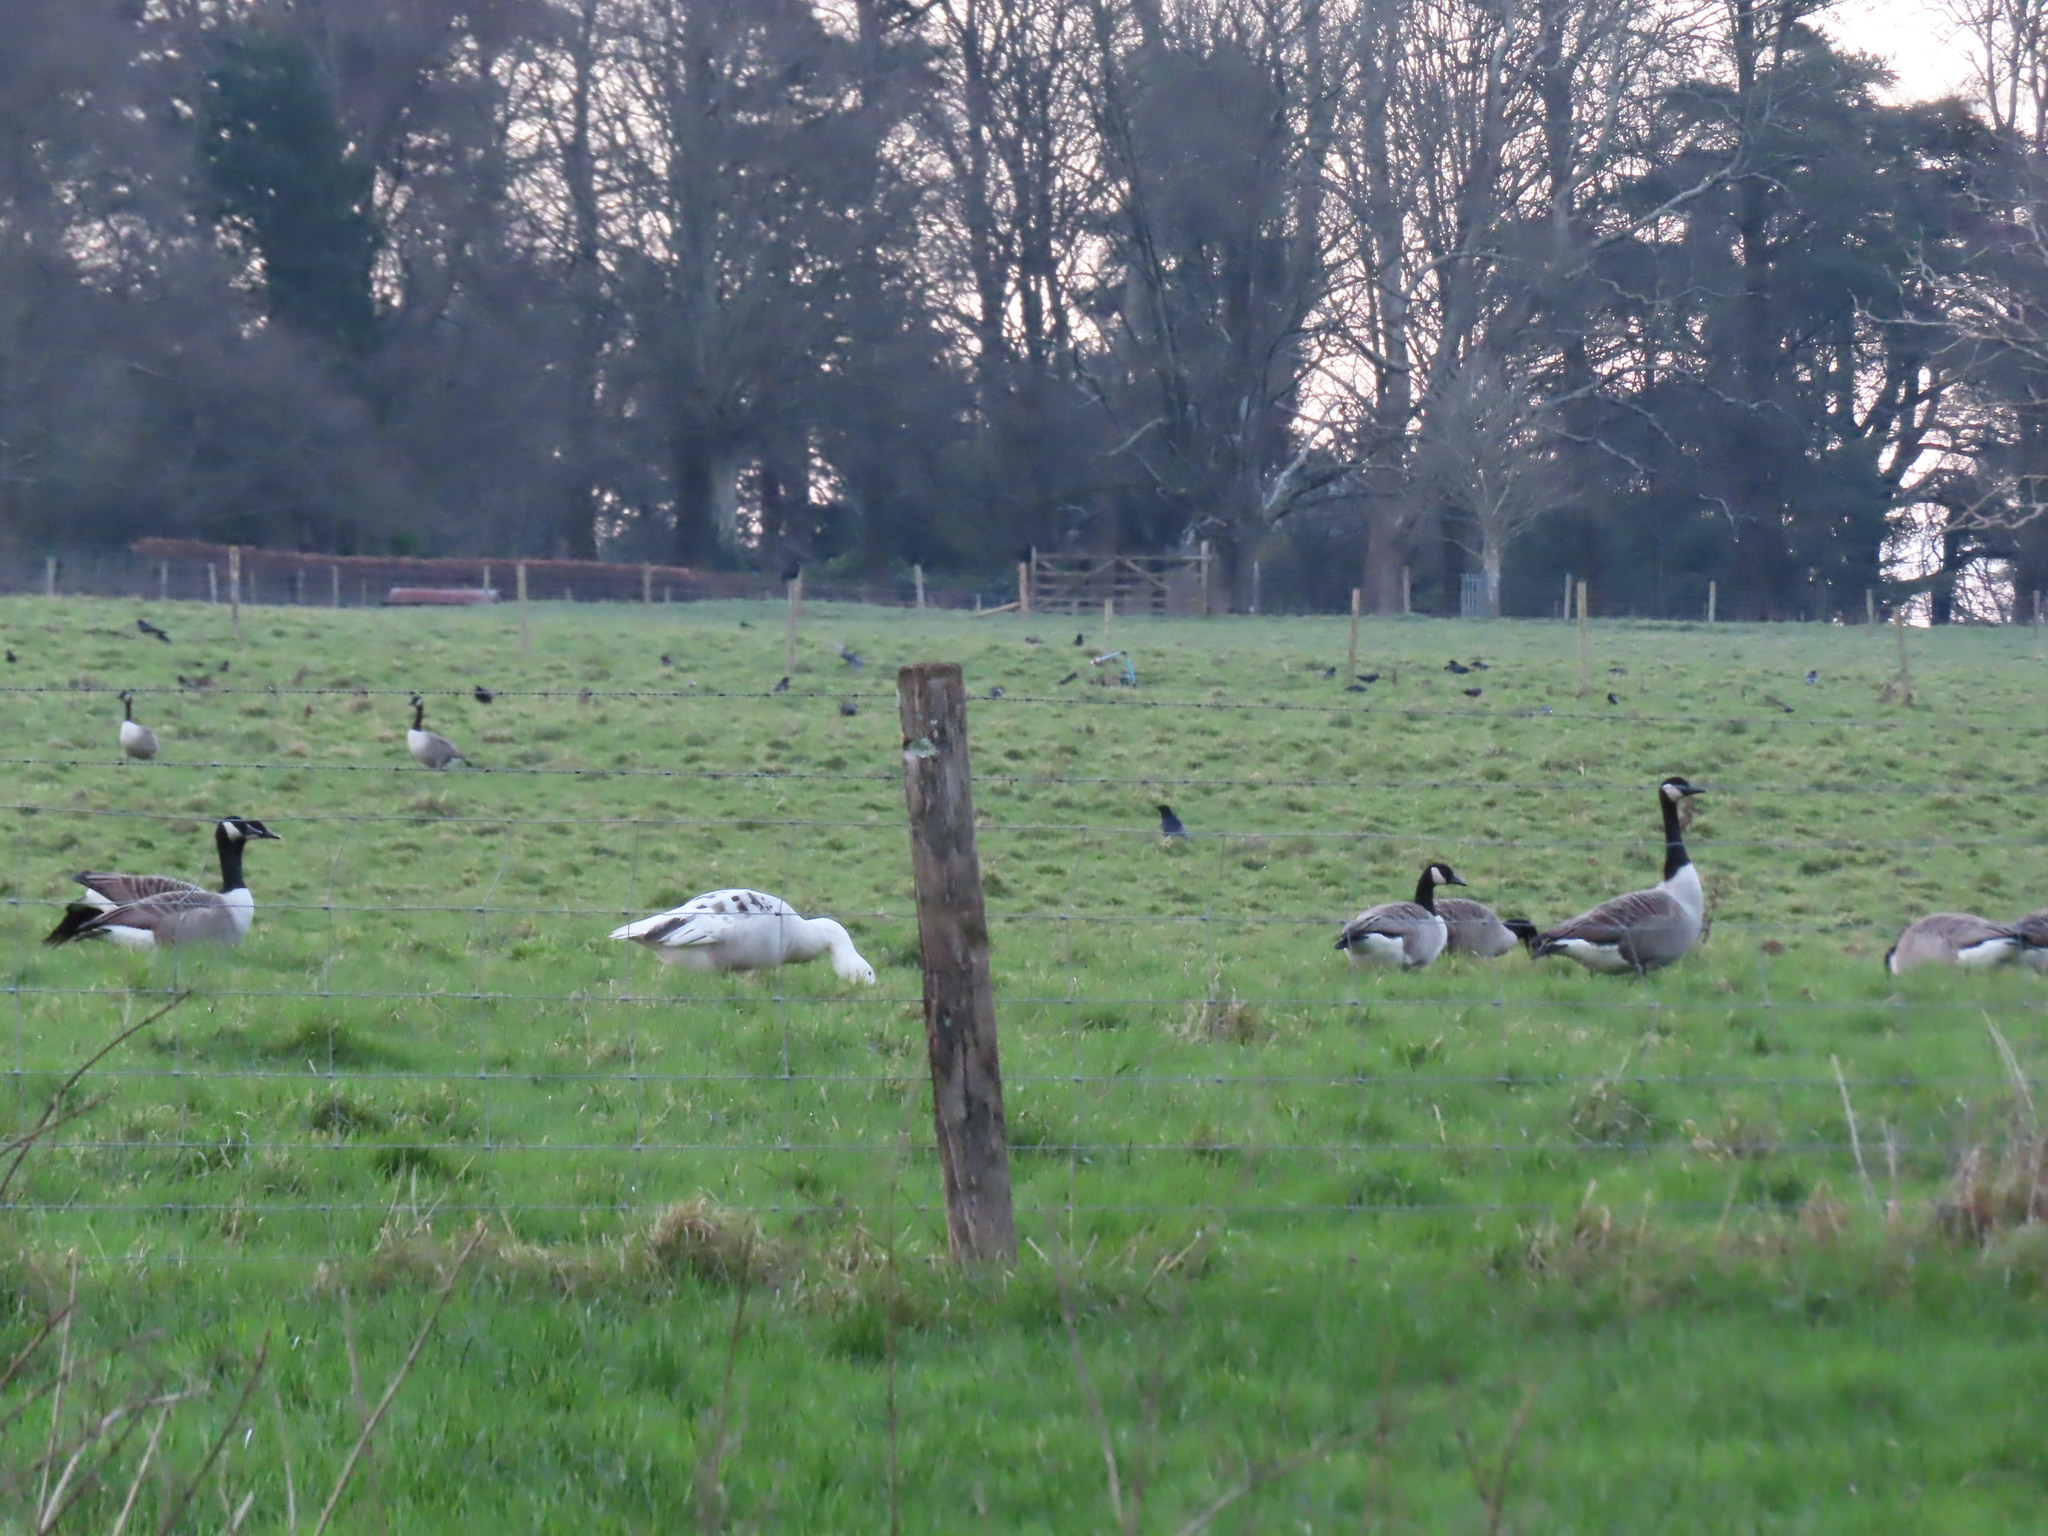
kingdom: Animalia
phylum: Chordata
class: Aves
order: Anseriformes
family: Anatidae
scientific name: Anatidae
